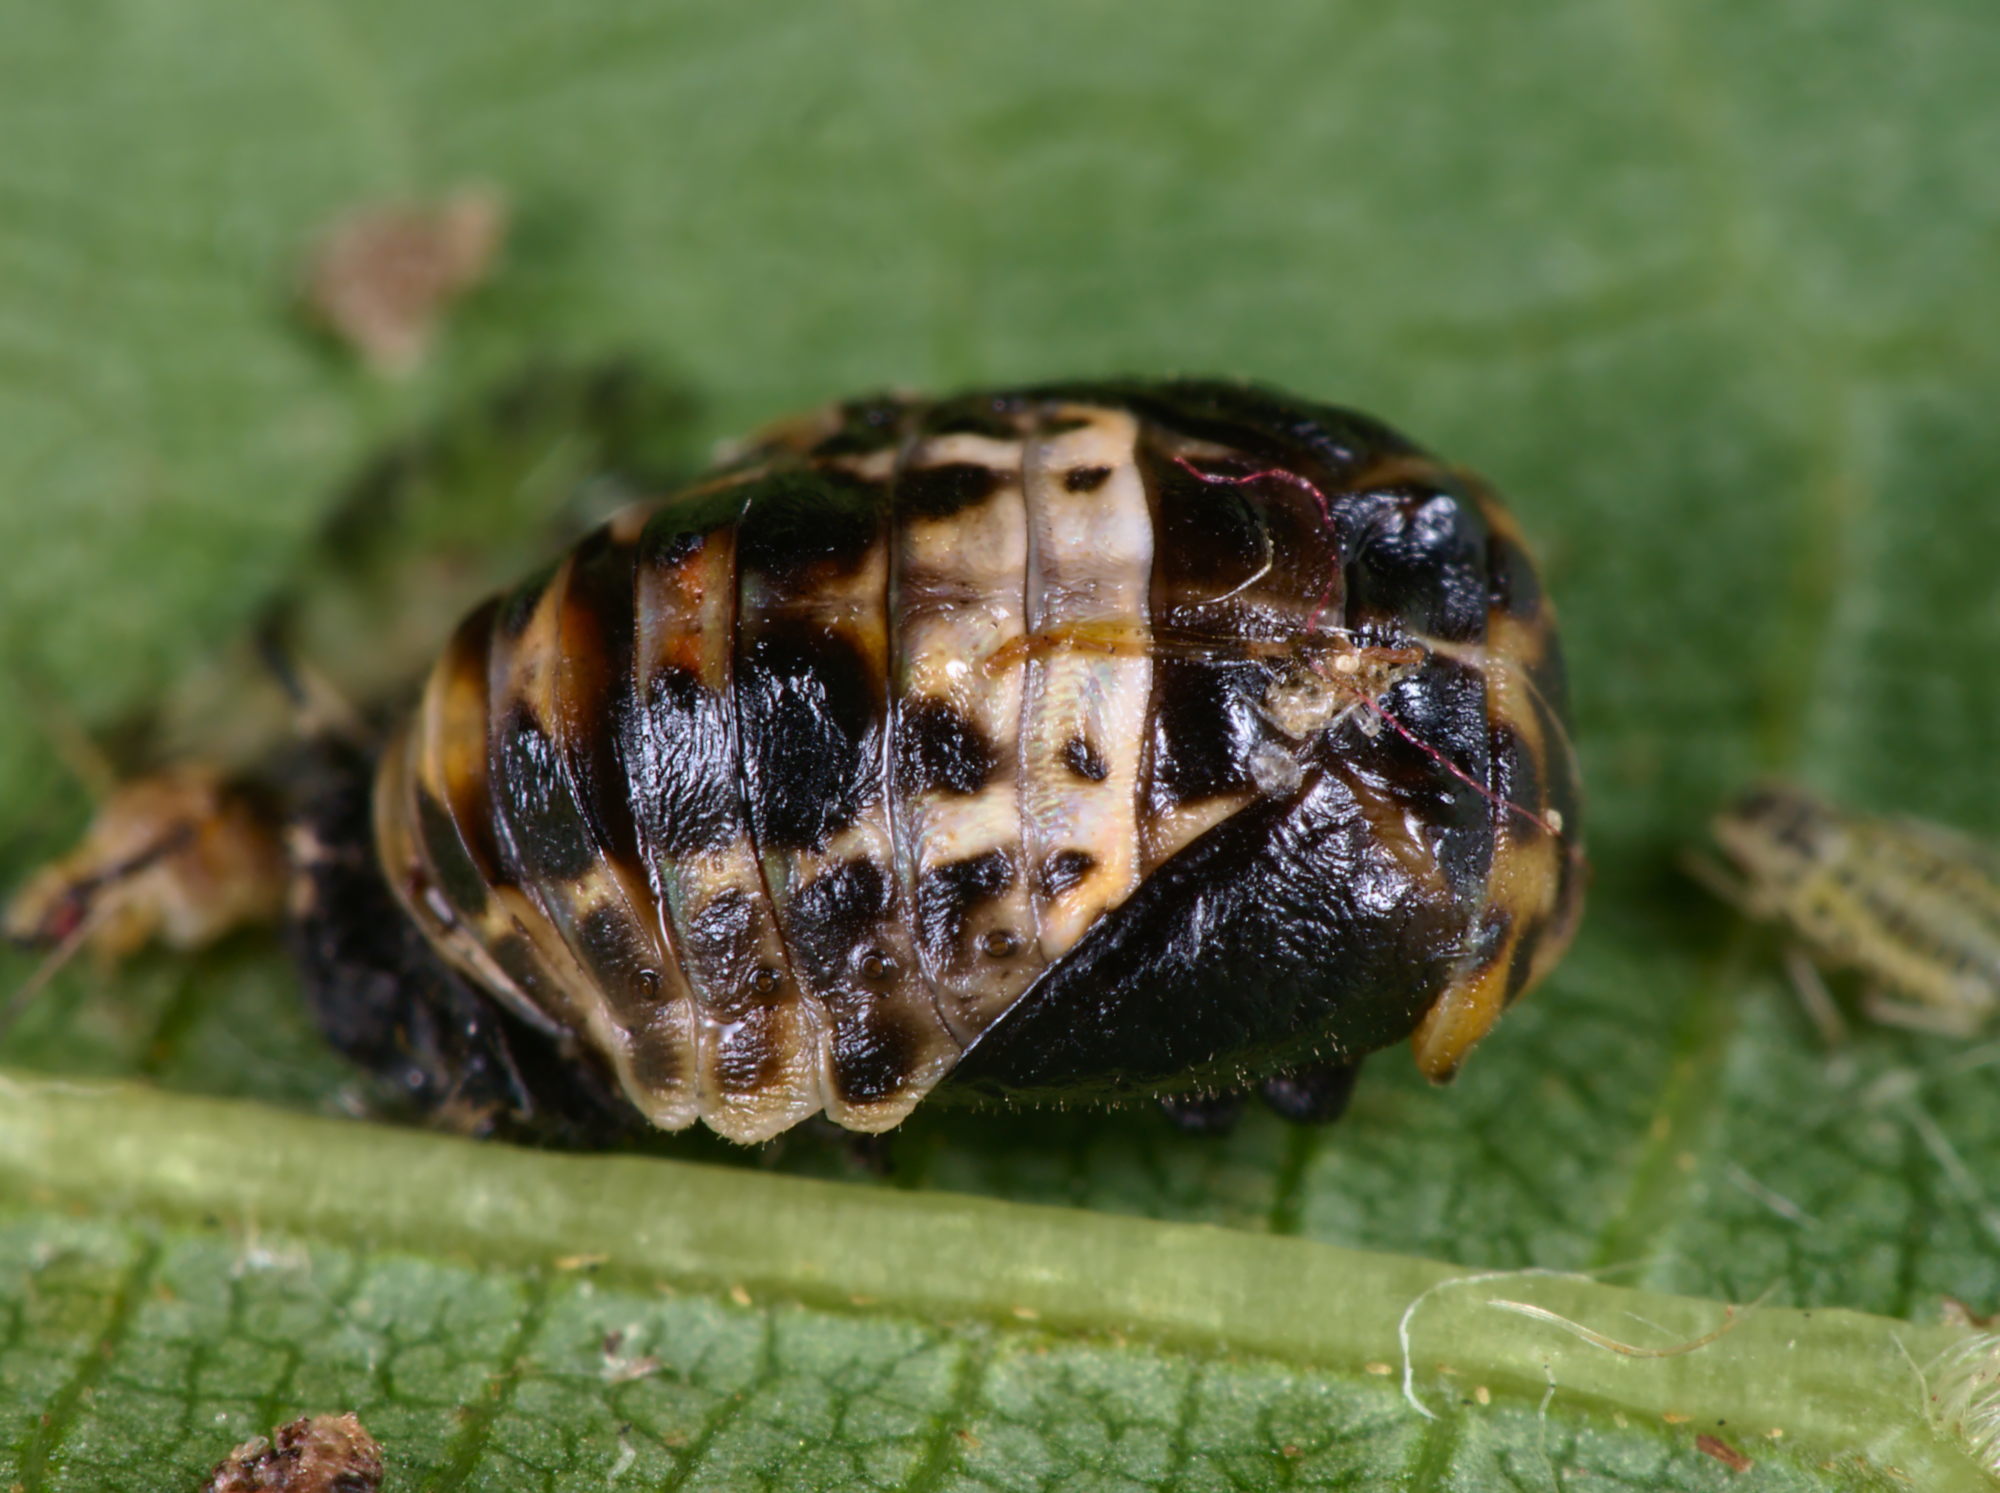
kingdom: Animalia
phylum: Arthropoda
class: Insecta
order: Coleoptera
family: Coccinellidae
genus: Adalia
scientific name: Adalia bipunctata
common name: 2-spot ladybird
